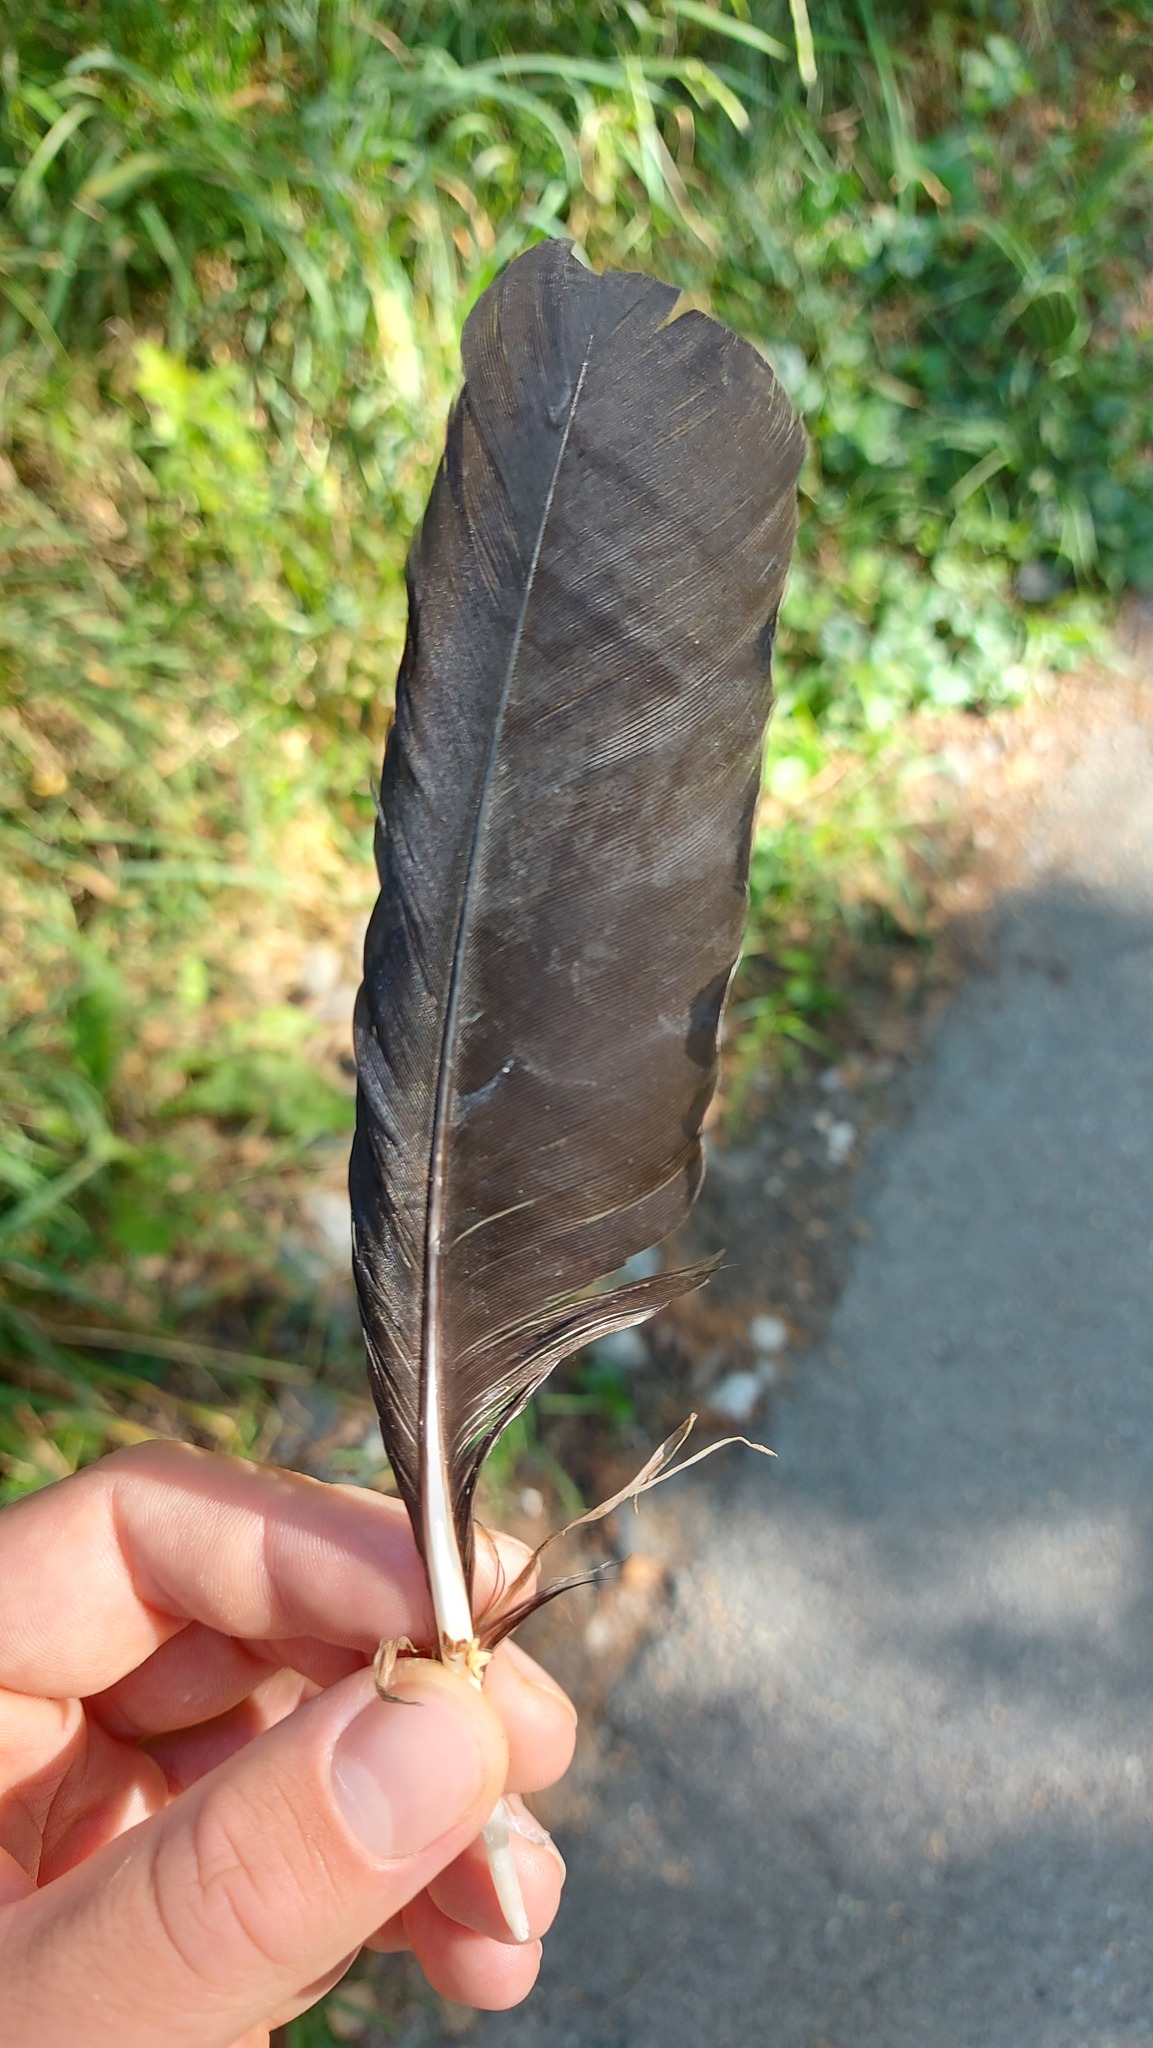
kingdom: Animalia
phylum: Chordata
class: Aves
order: Passeriformes
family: Corvidae
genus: Corvus
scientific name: Corvus corone
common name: Carrion crow
